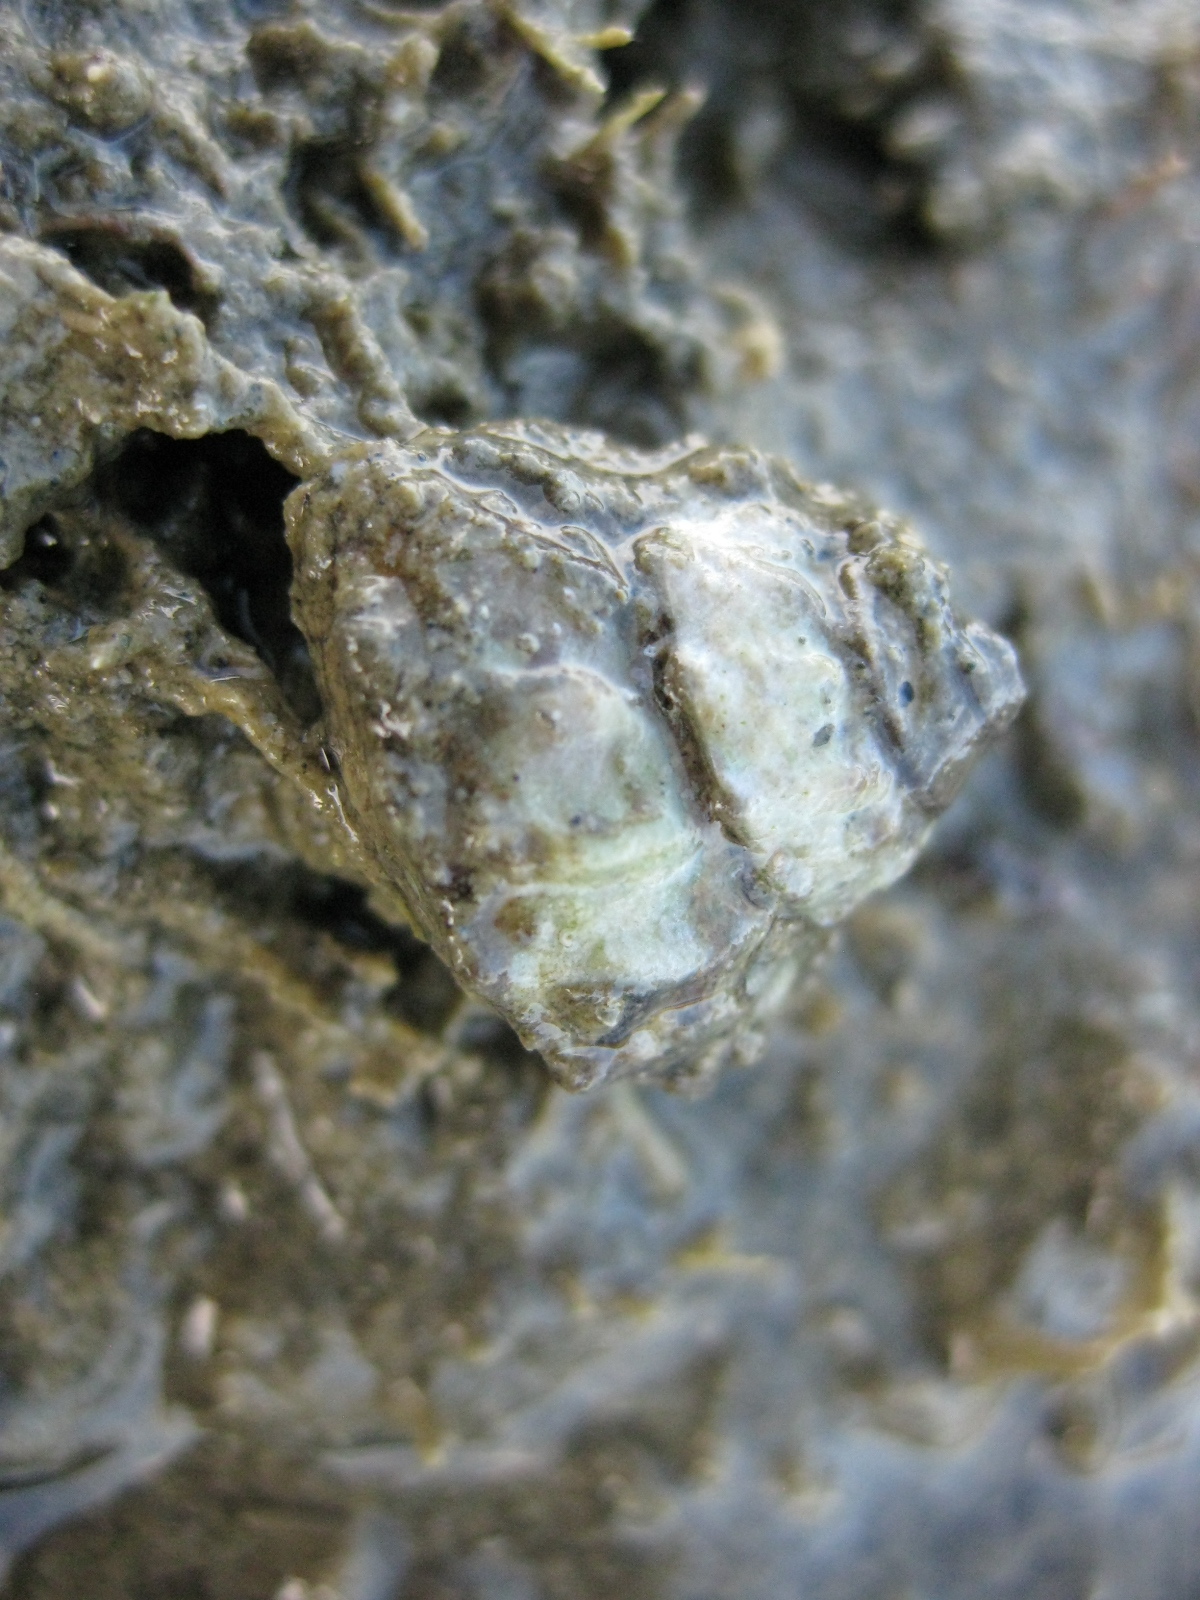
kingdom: Animalia
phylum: Mollusca
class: Gastropoda
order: Trochida
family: Turbinidae
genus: Cookia
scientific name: Cookia sulcata
